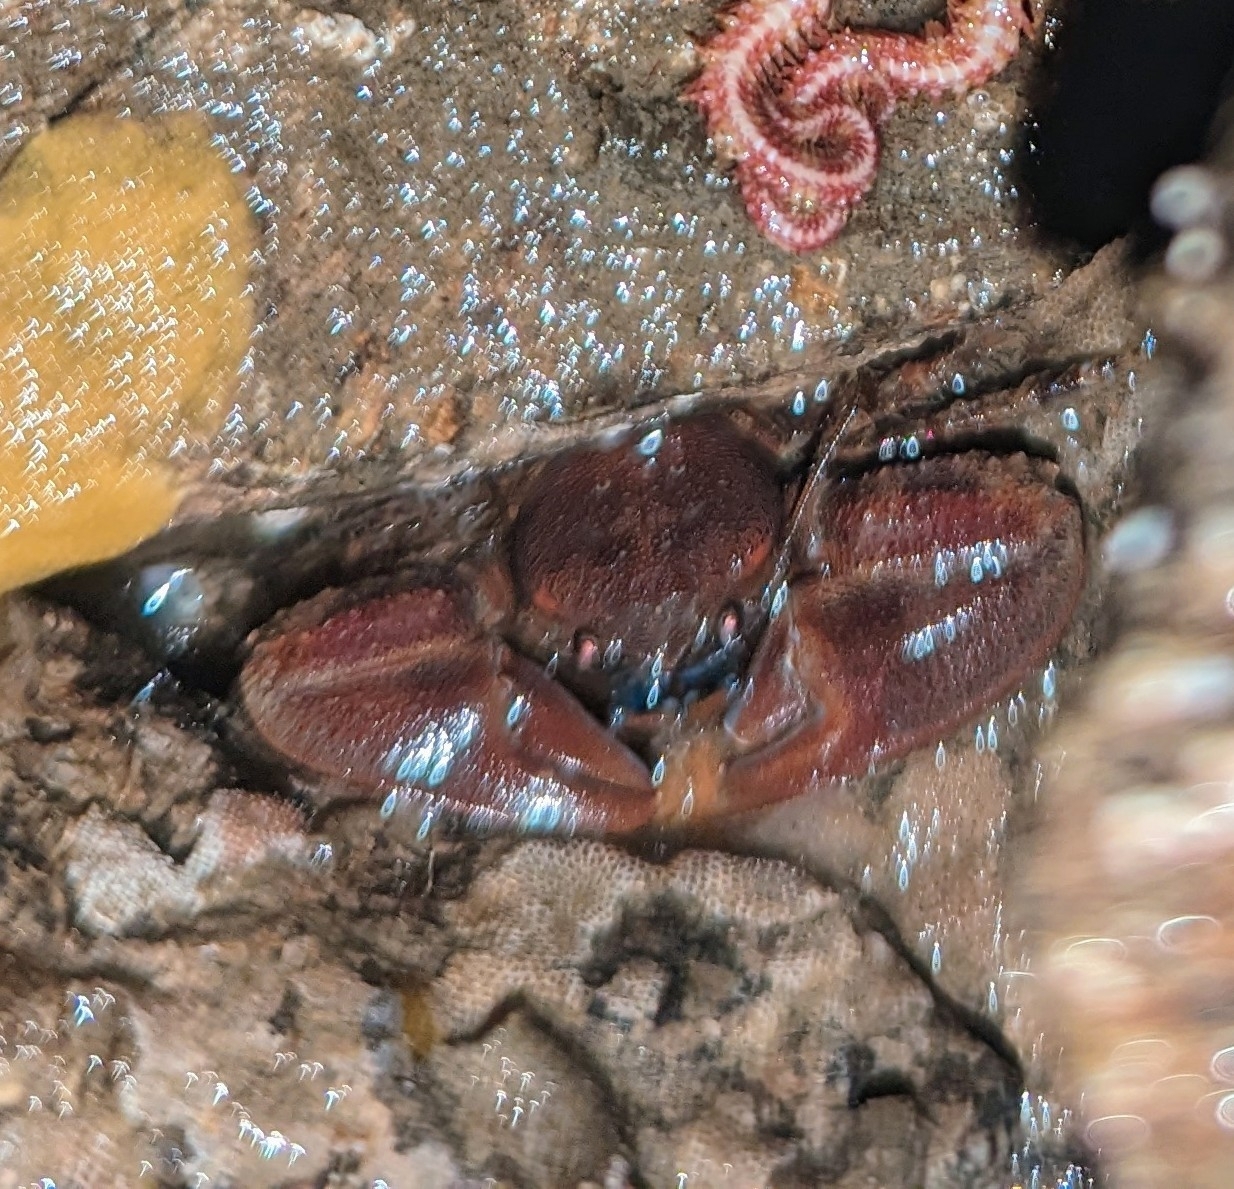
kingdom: Animalia
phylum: Arthropoda
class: Malacostraca
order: Decapoda
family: Porcellanidae
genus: Petrolisthes
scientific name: Petrolisthes eriomerus
